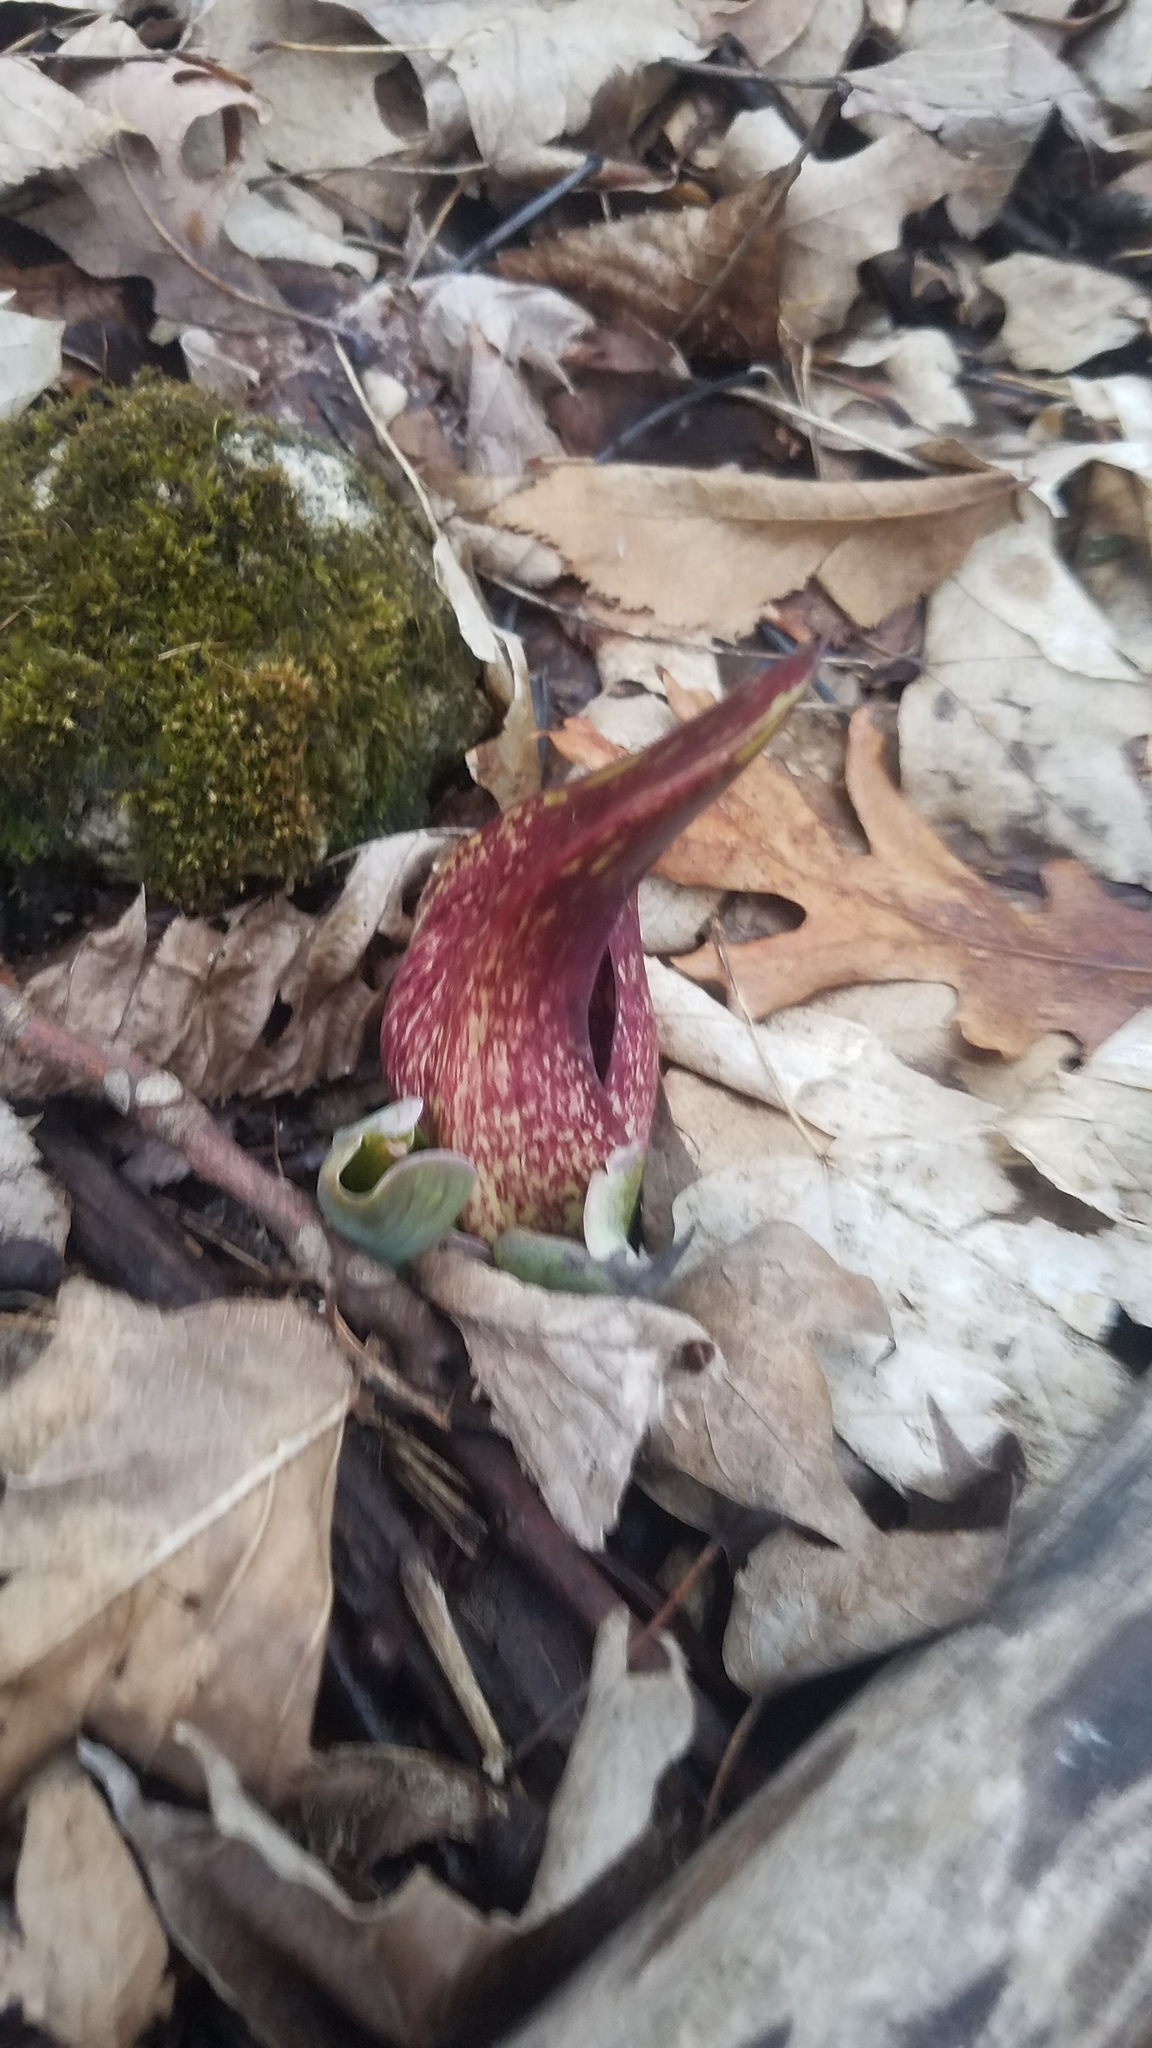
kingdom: Plantae
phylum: Tracheophyta
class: Liliopsida
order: Alismatales
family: Araceae
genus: Symplocarpus
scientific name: Symplocarpus foetidus
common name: Eastern skunk cabbage
